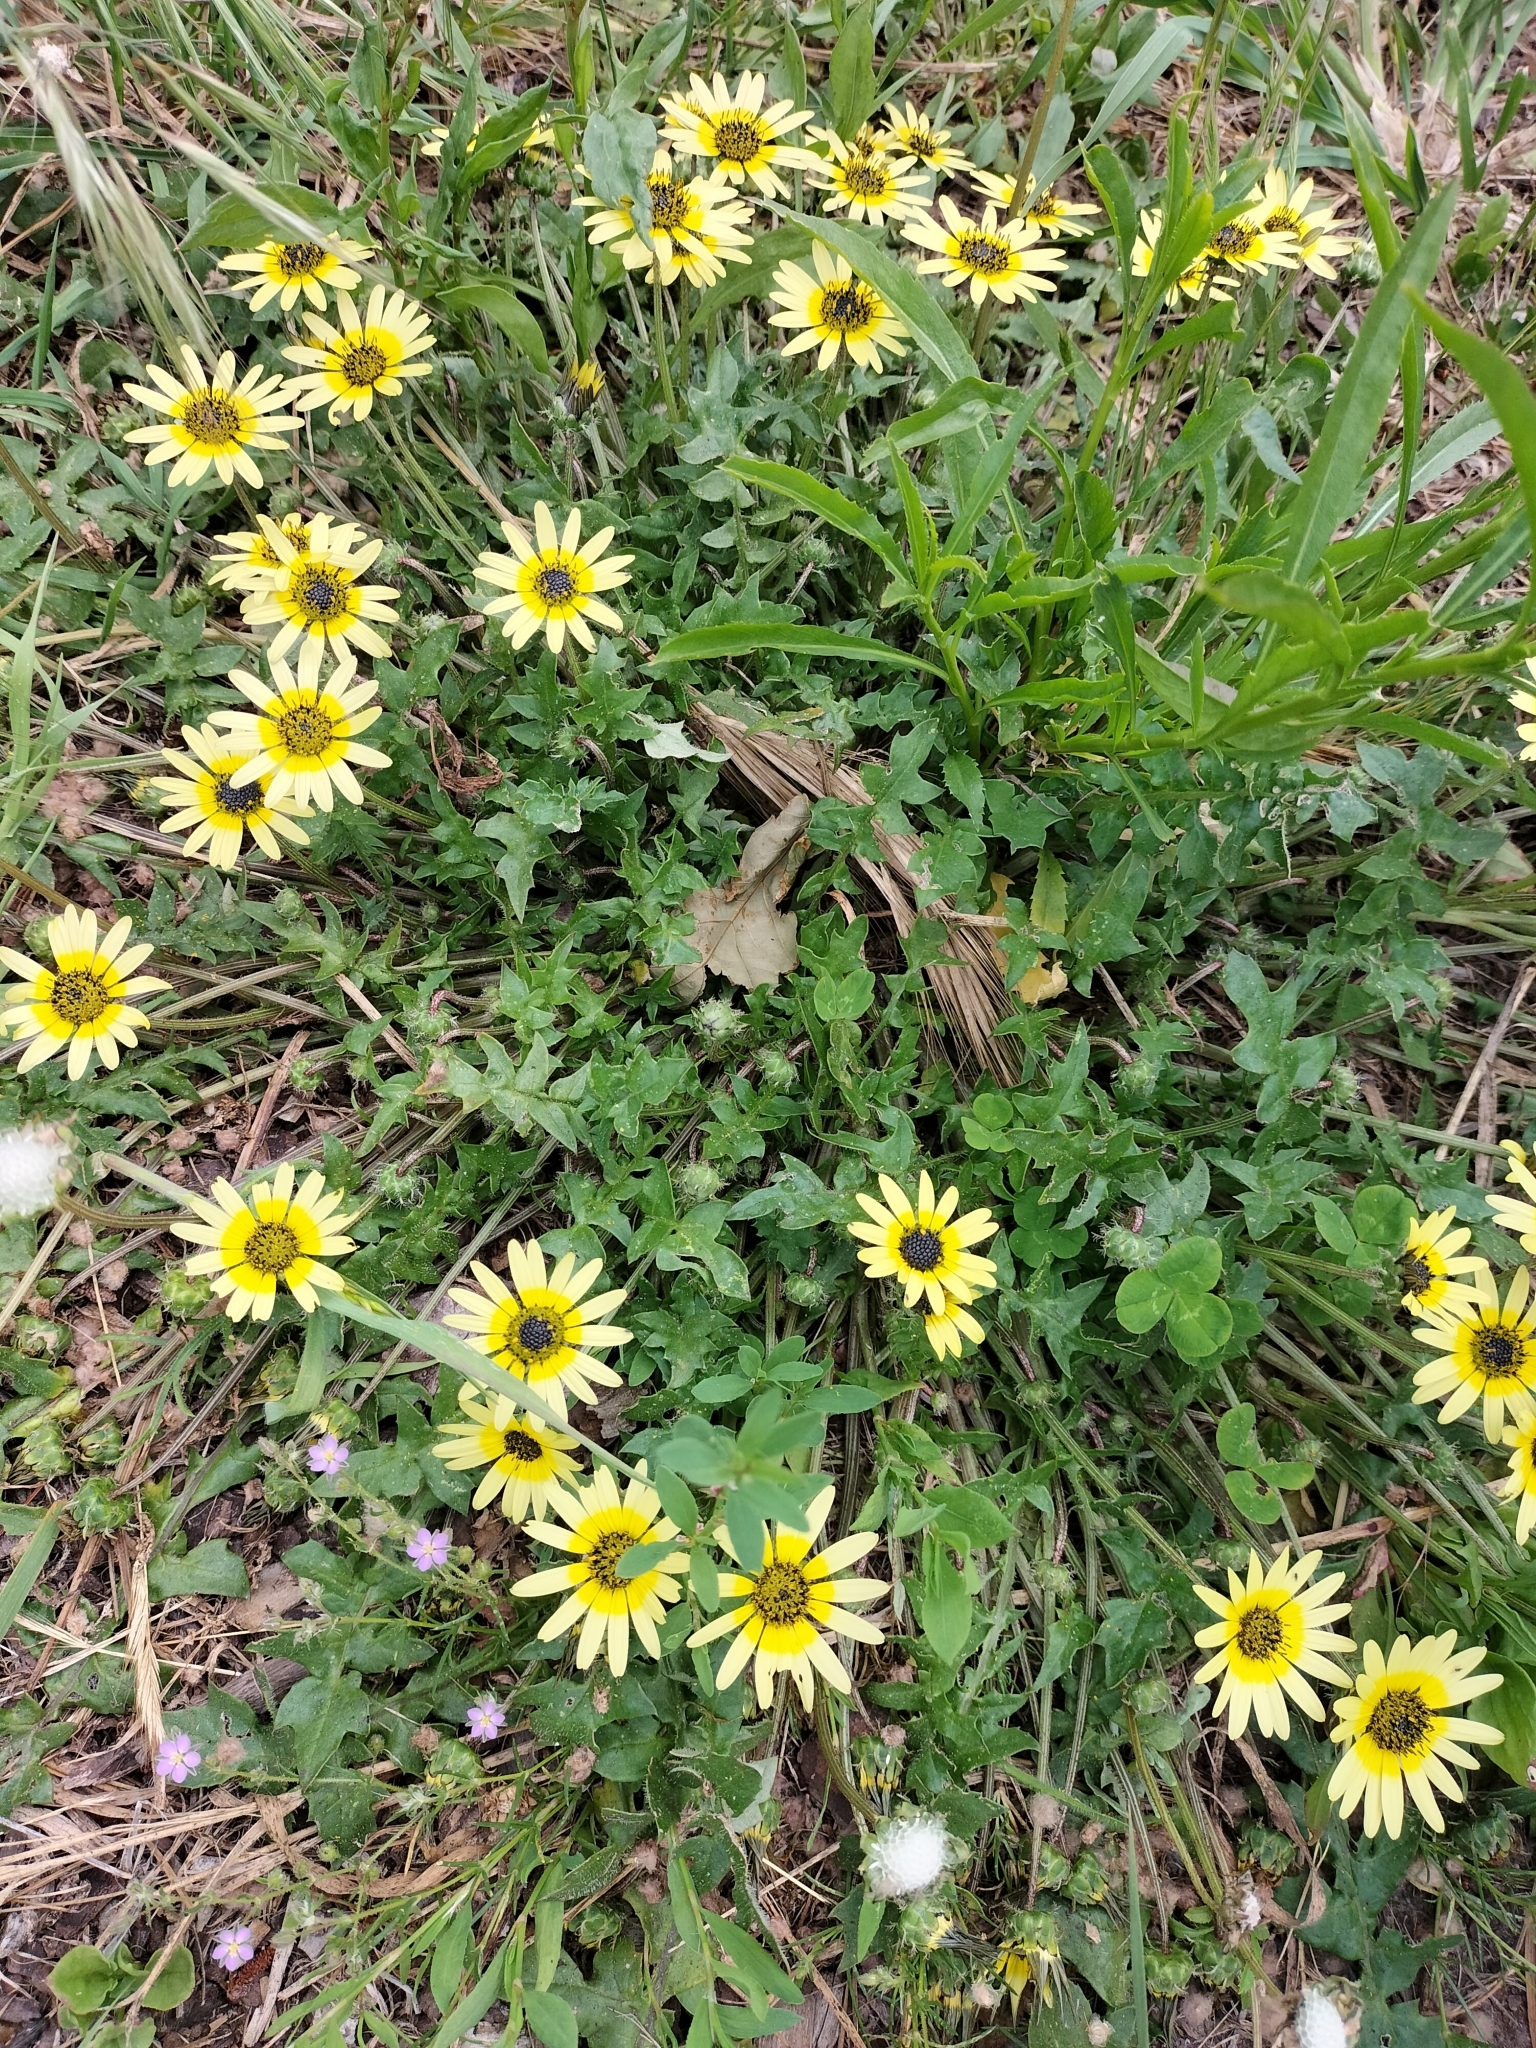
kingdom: Plantae
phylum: Tracheophyta
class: Magnoliopsida
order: Asterales
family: Asteraceae
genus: Arctotheca
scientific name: Arctotheca calendula
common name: Capeweed
